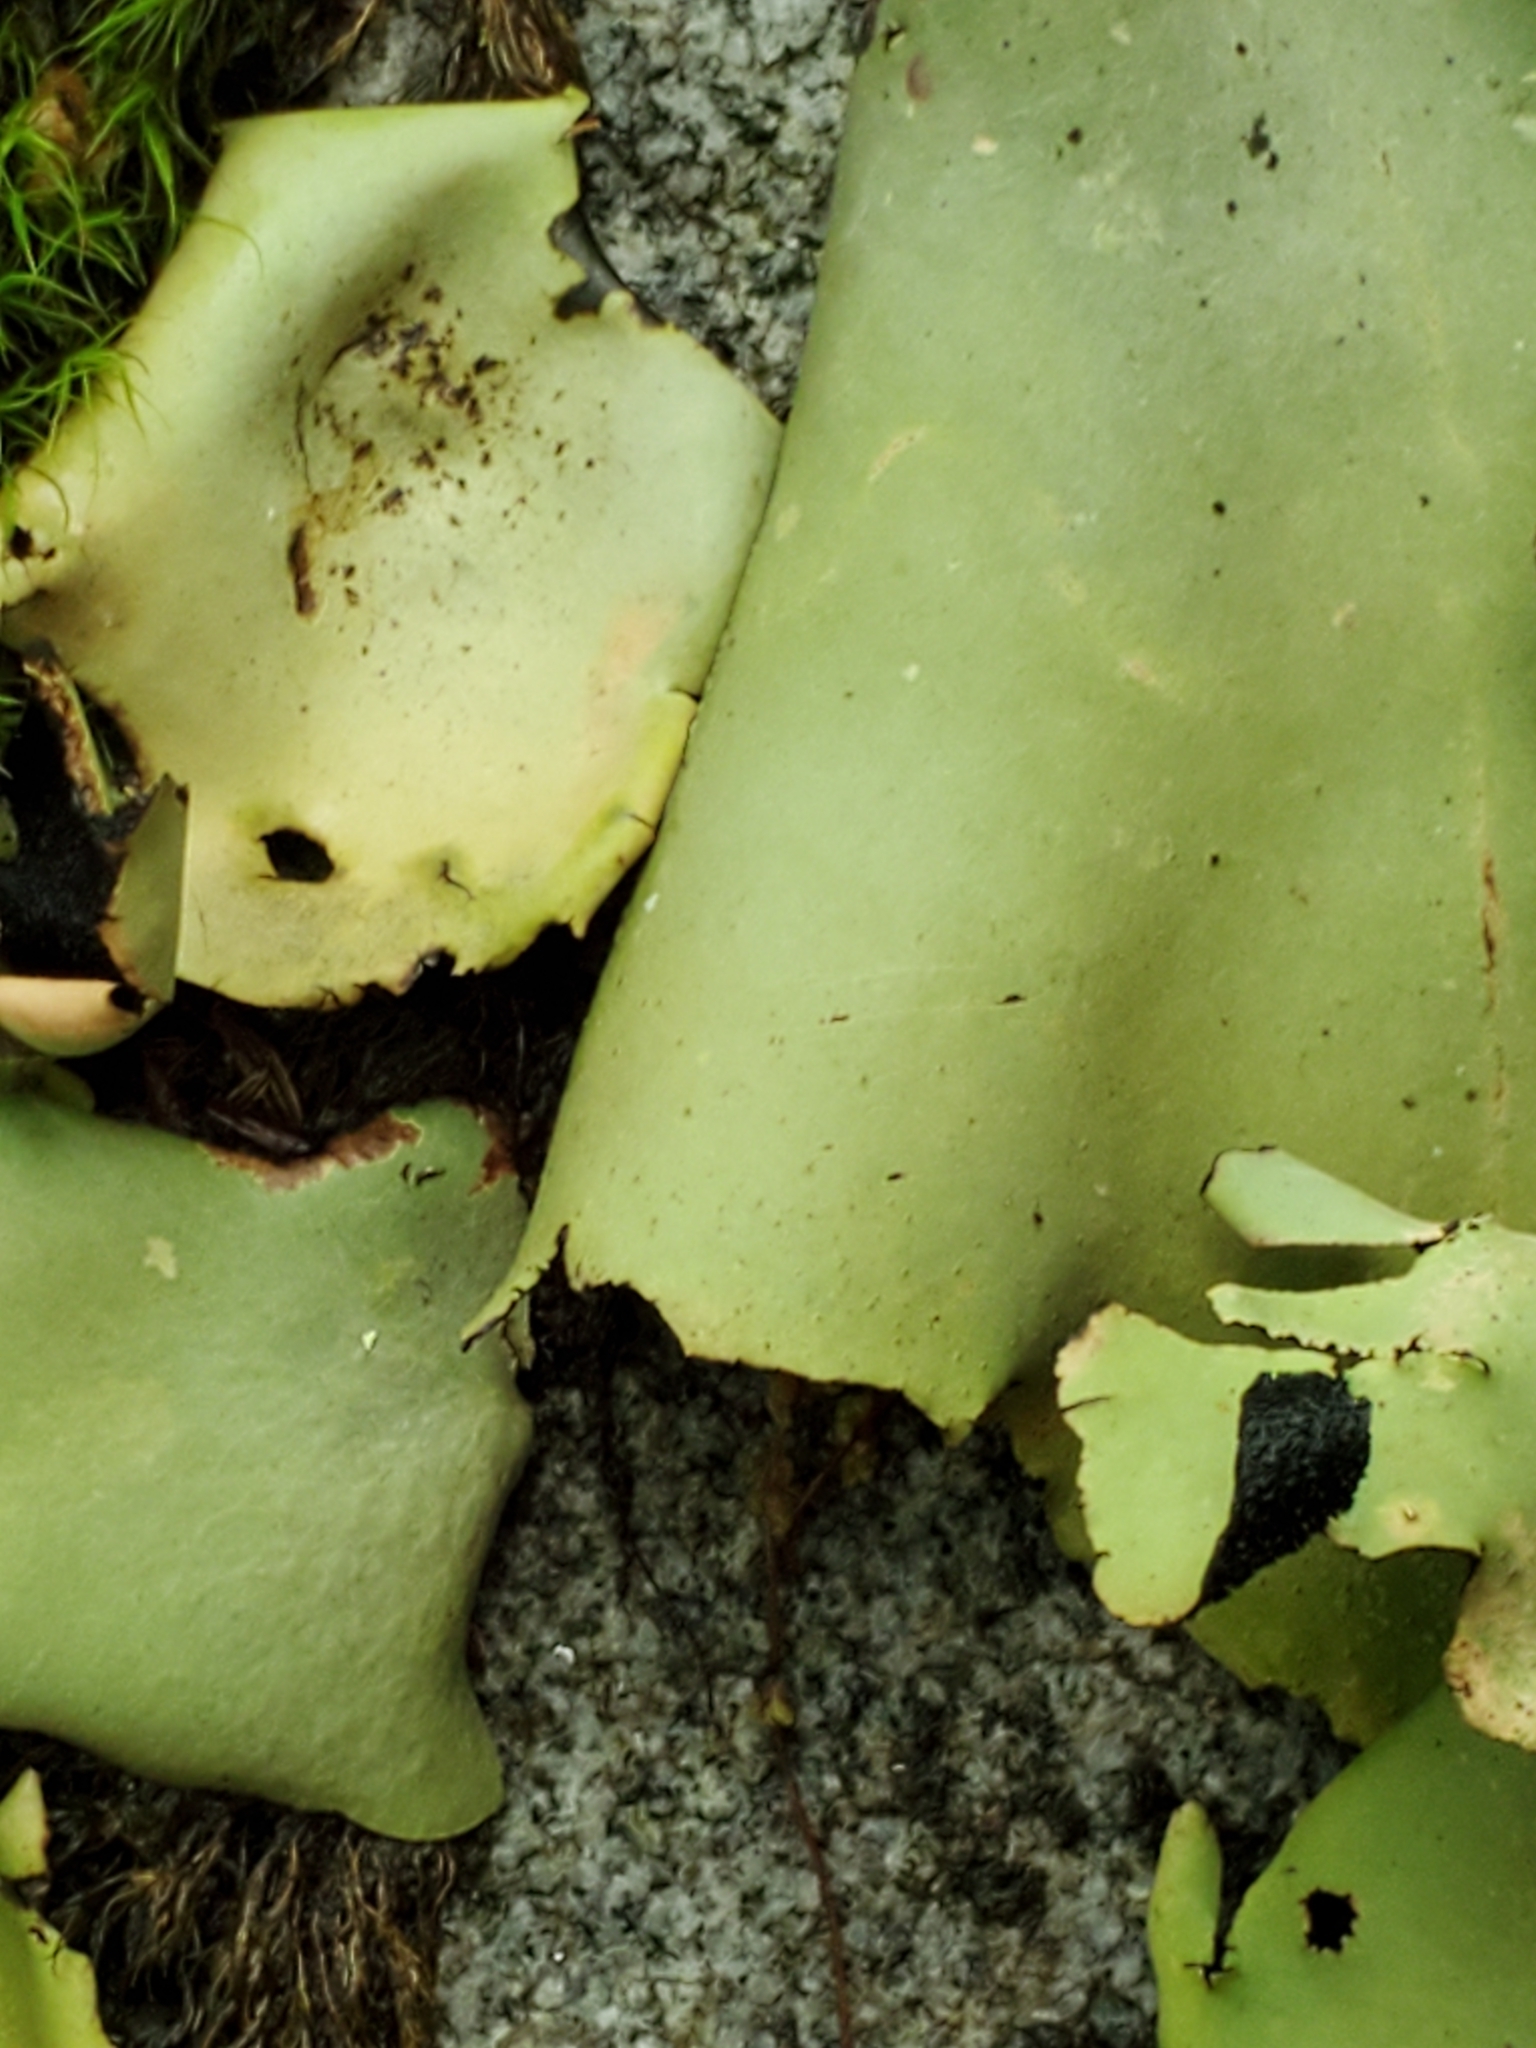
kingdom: Fungi
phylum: Ascomycota
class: Lecanoromycetes
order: Umbilicariales
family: Umbilicariaceae
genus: Umbilicaria
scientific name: Umbilicaria mammulata
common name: Smooth rock tripe
